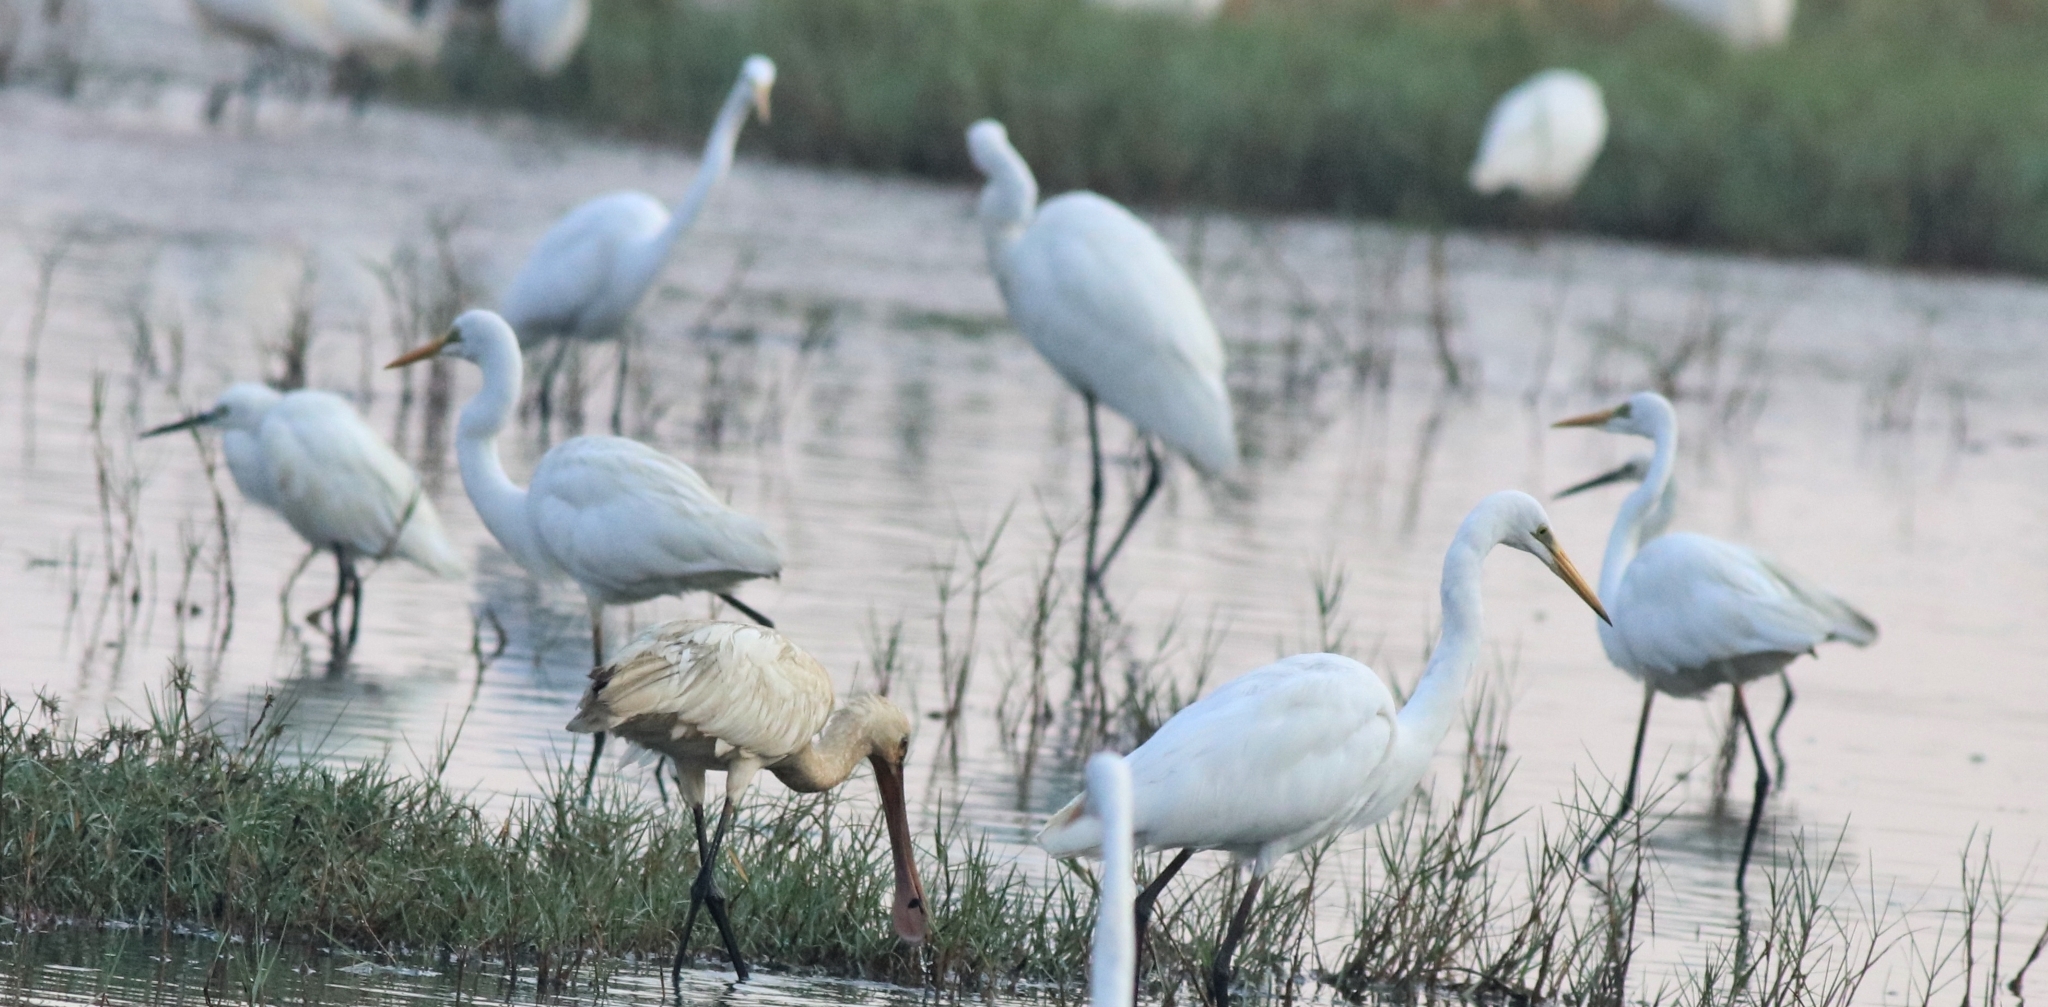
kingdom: Animalia
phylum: Chordata
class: Aves
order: Pelecaniformes
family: Ardeidae
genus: Ardea
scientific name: Ardea alba
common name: Great egret
